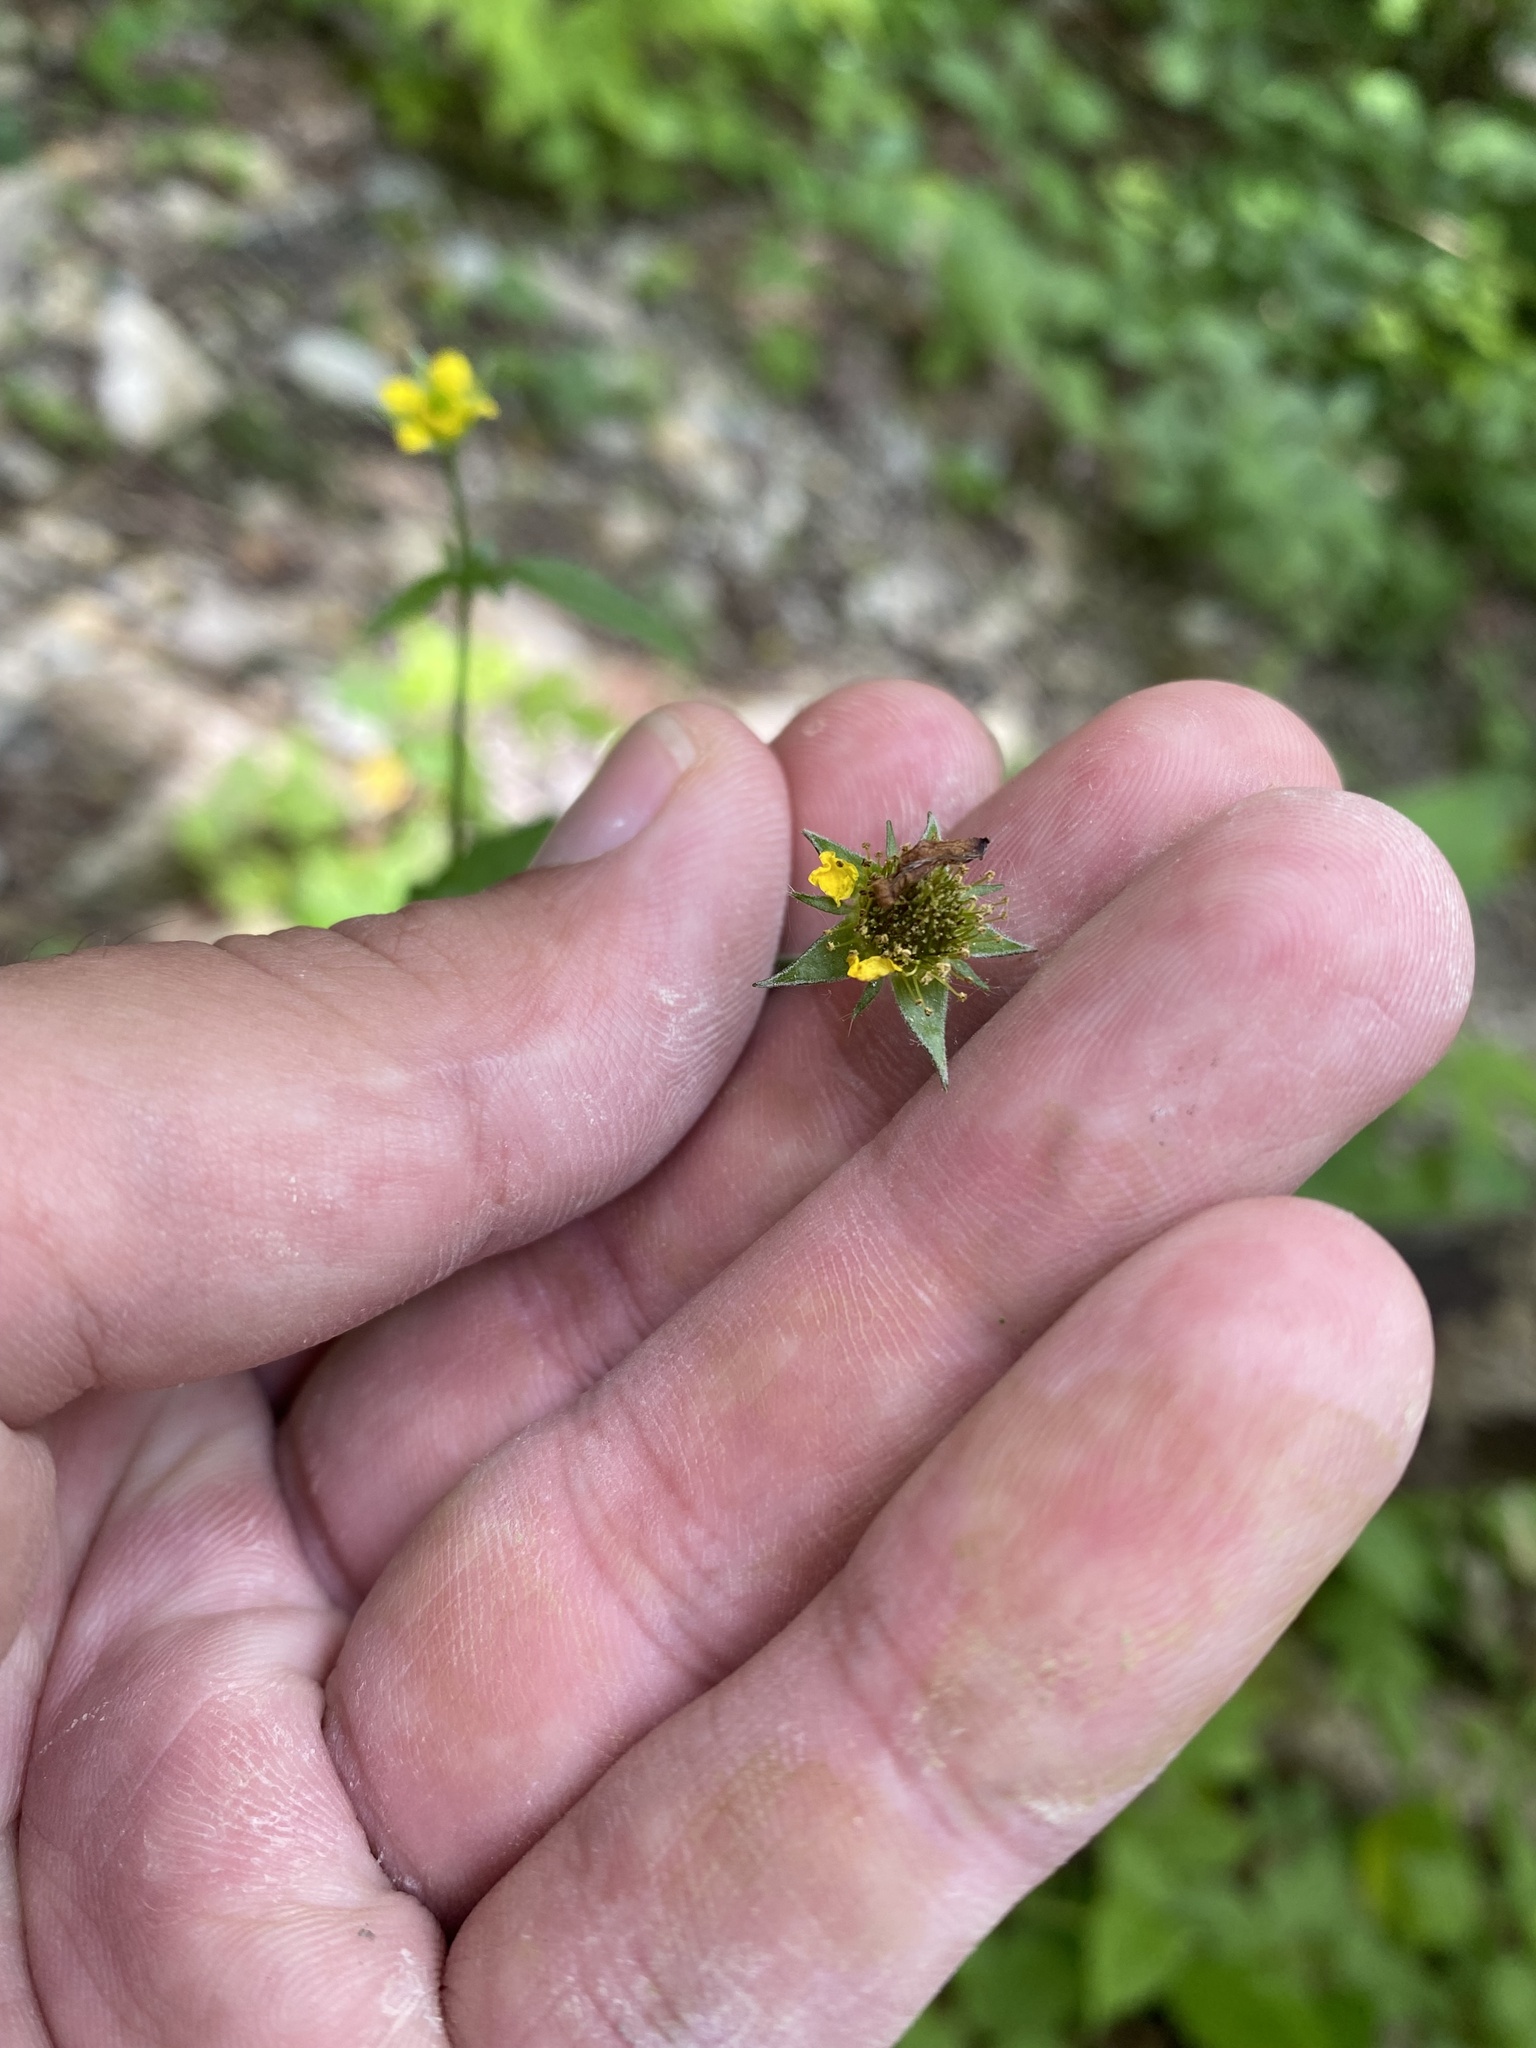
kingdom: Plantae
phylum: Tracheophyta
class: Magnoliopsida
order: Rosales
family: Rosaceae
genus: Geum
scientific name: Geum urbanum
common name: Wood avens
